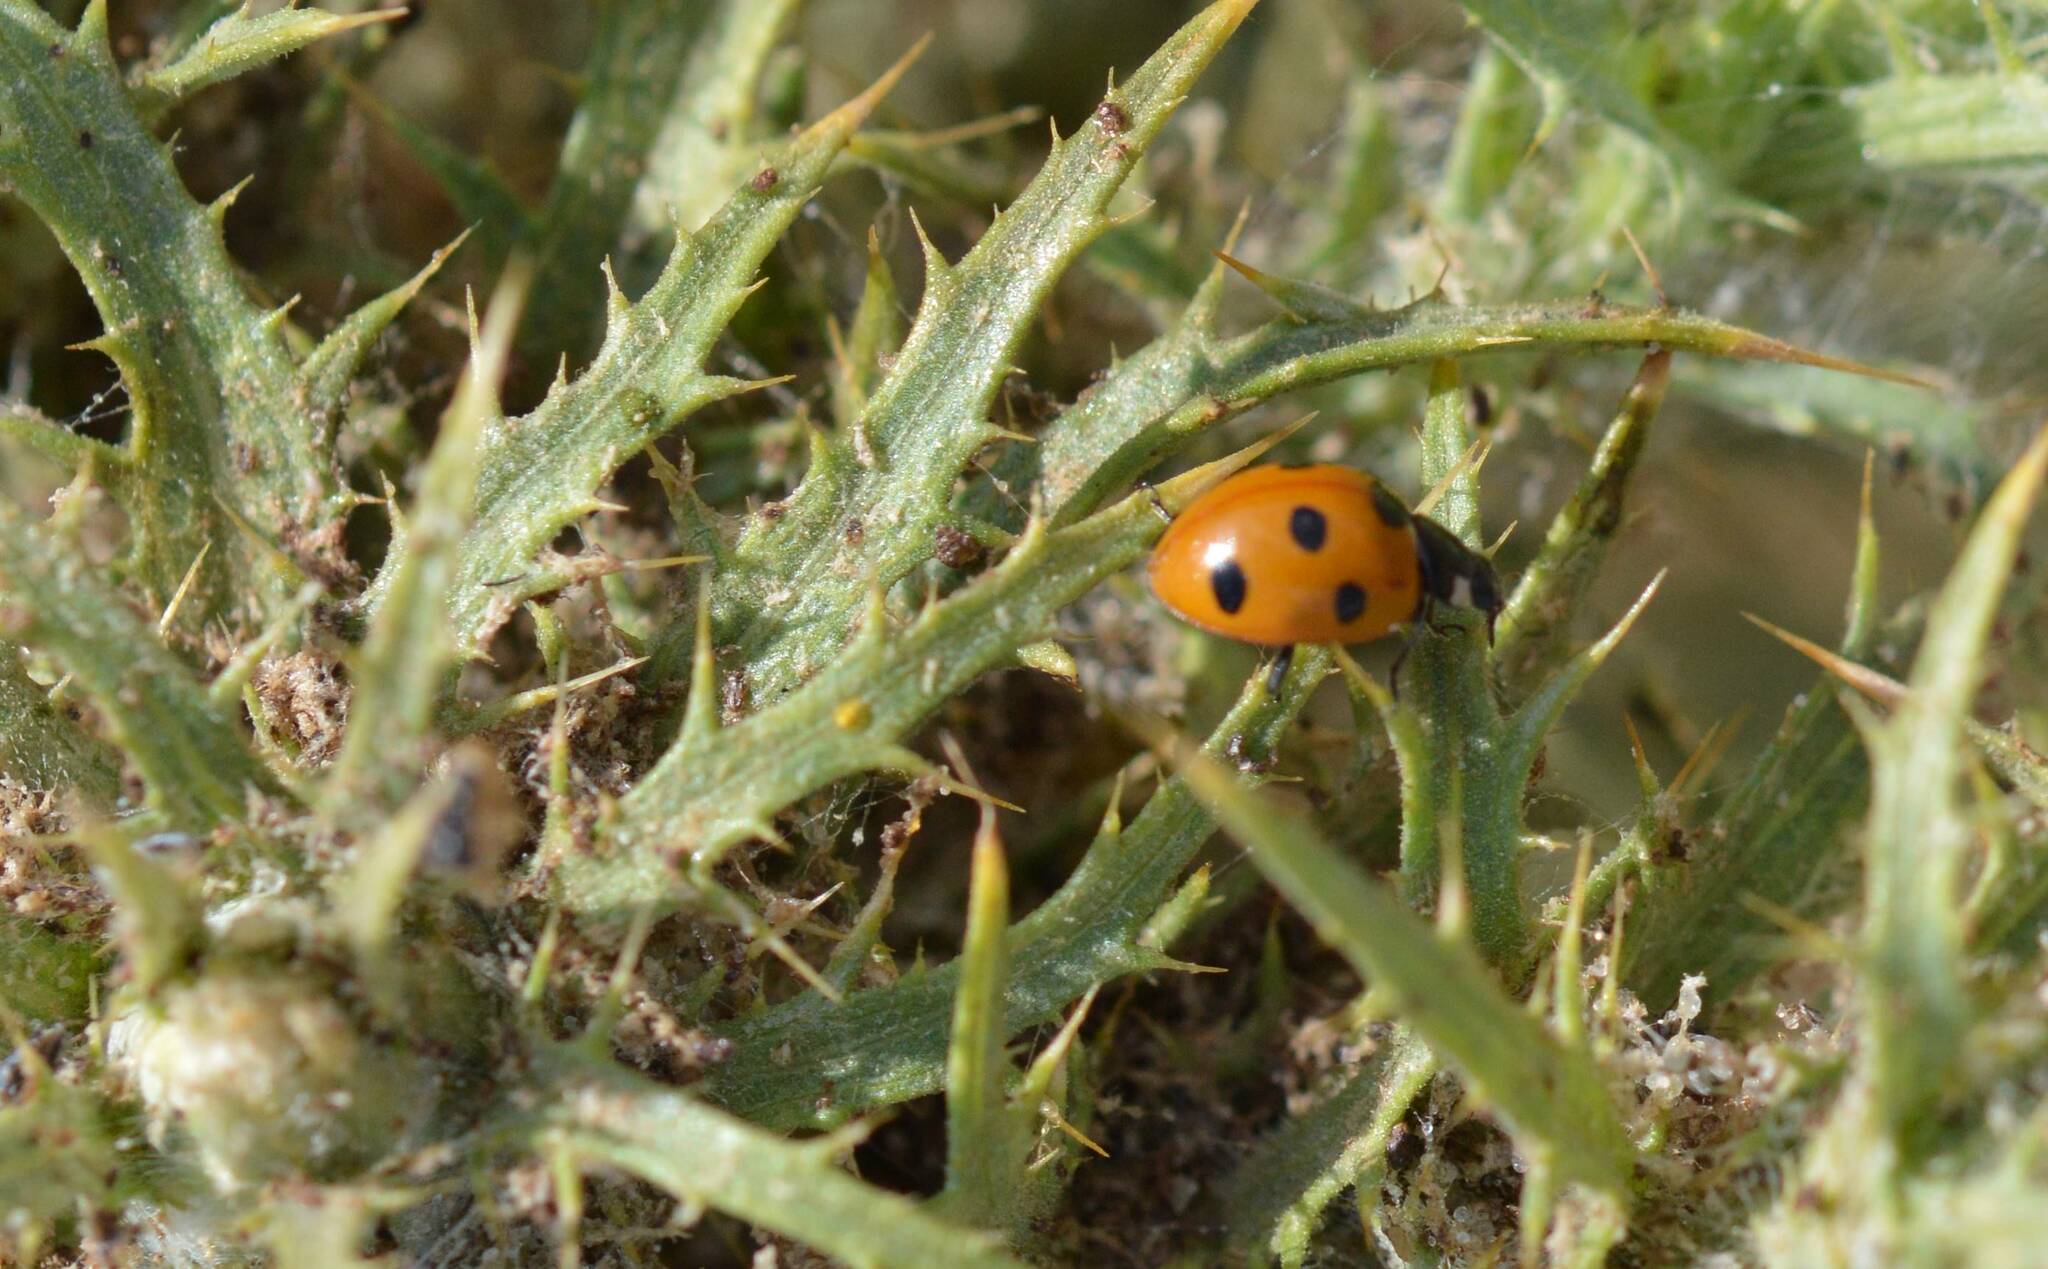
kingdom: Animalia
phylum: Arthropoda
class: Insecta
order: Coleoptera
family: Coccinellidae
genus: Coccinella
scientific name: Coccinella algerica
